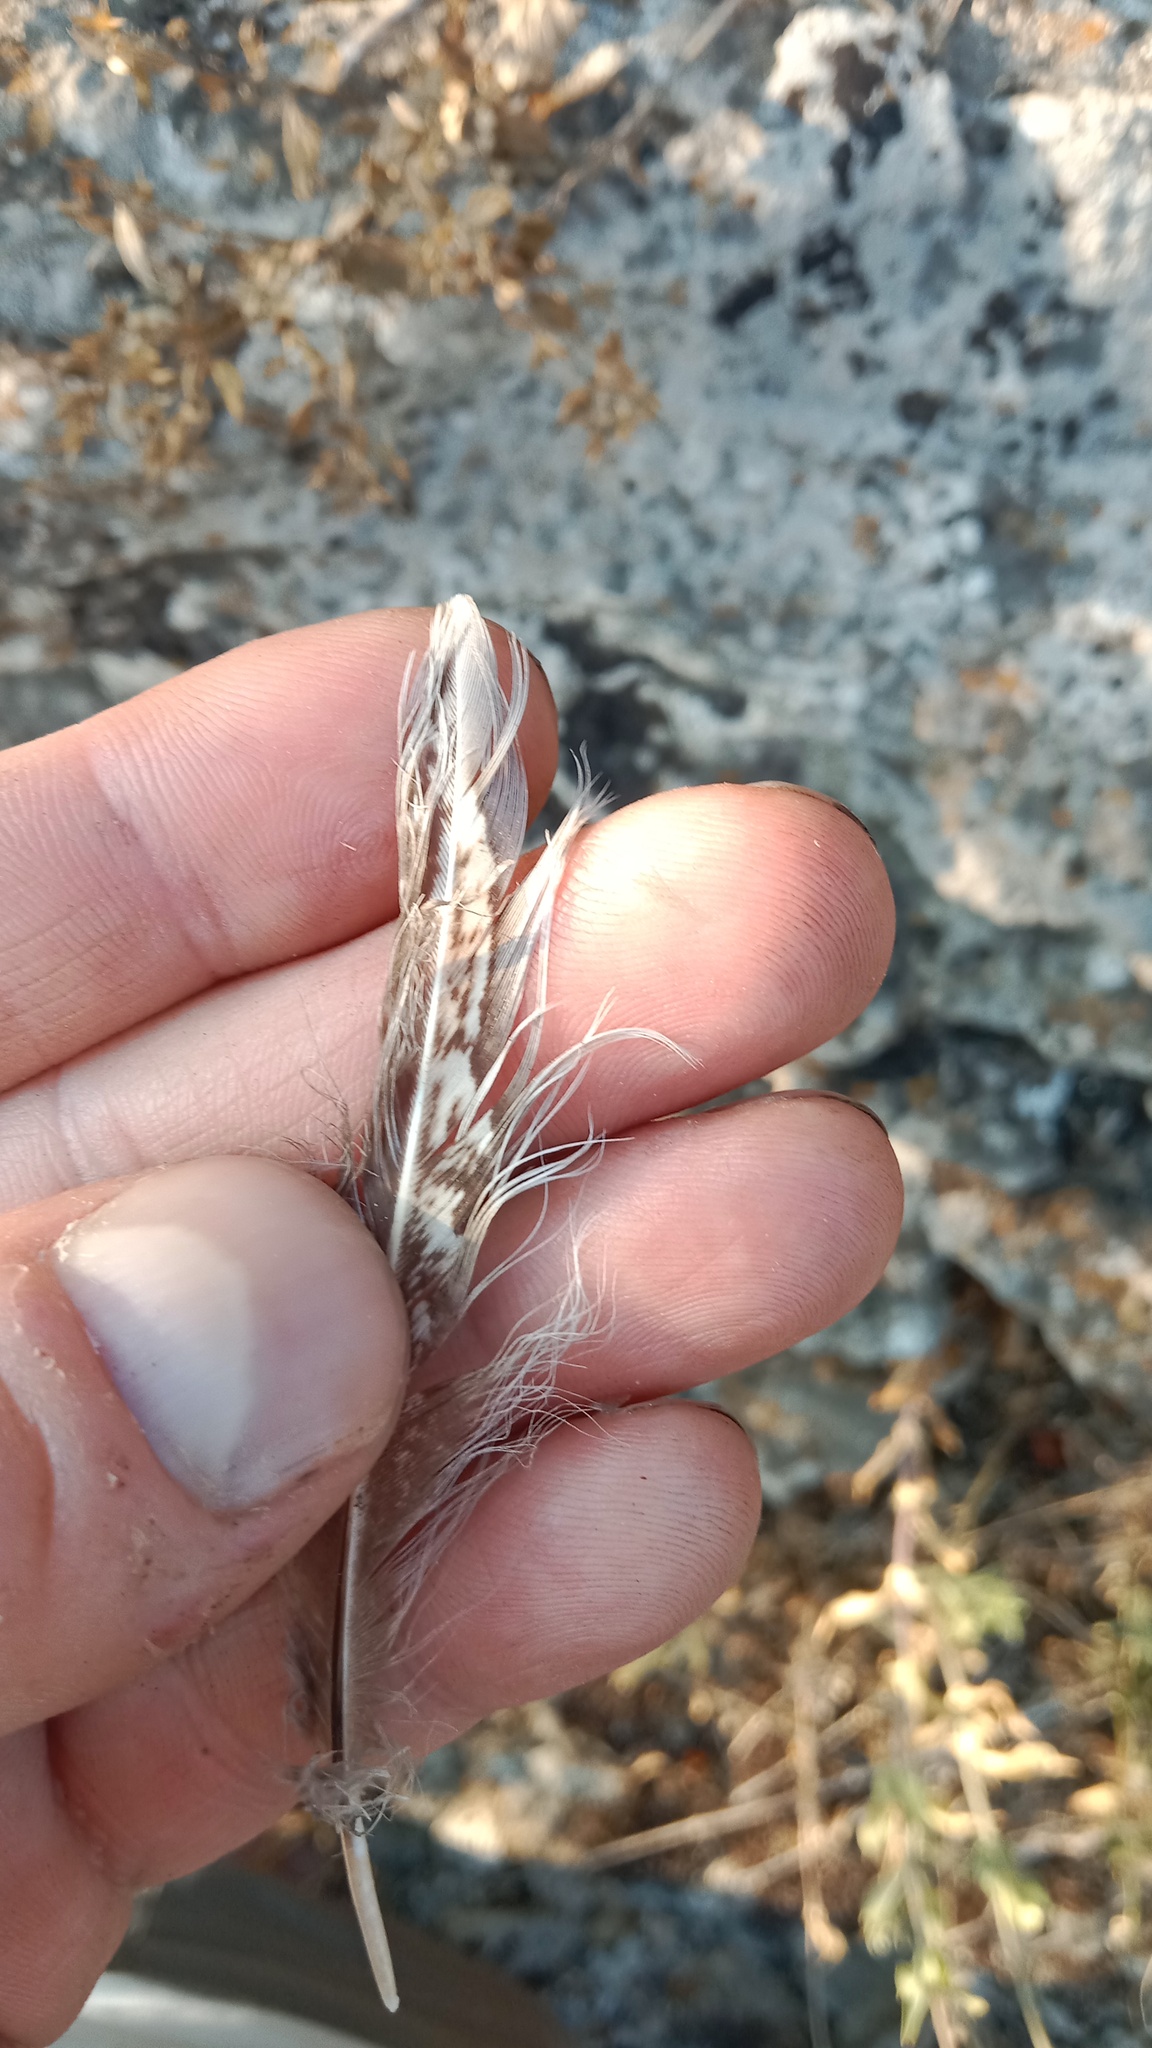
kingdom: Animalia
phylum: Chordata
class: Aves
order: Galliformes
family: Phasianidae
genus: Phasianus
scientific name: Phasianus colchicus
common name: Common pheasant
